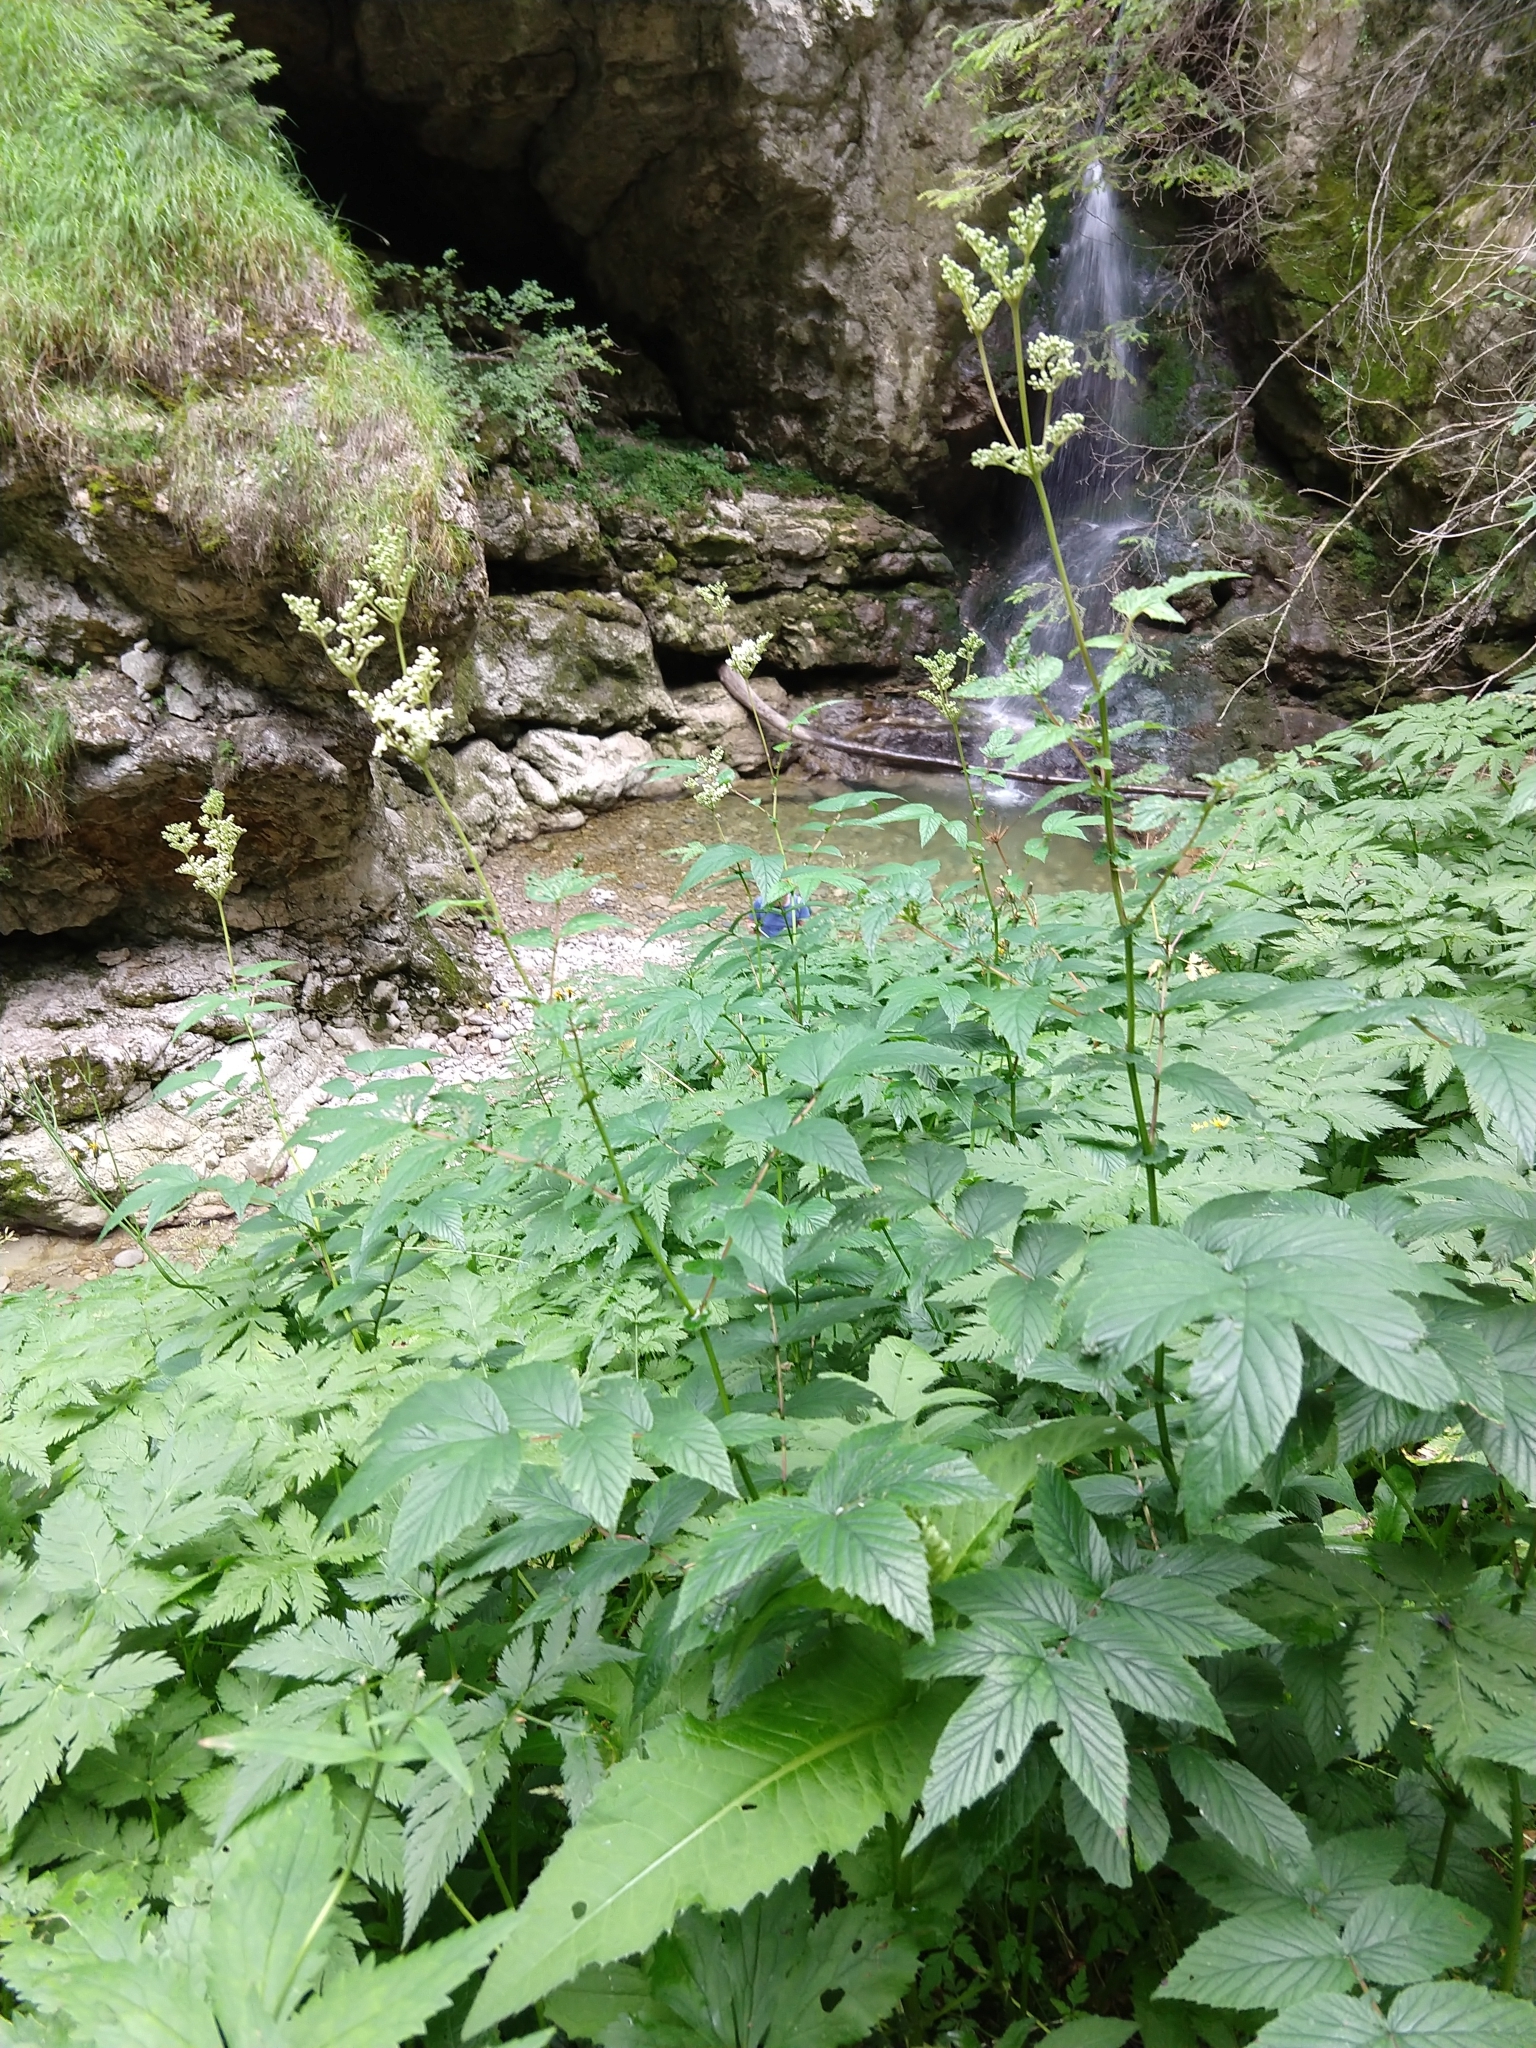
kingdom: Plantae
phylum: Tracheophyta
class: Magnoliopsida
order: Rosales
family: Rosaceae
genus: Filipendula
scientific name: Filipendula ulmaria
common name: Meadowsweet
